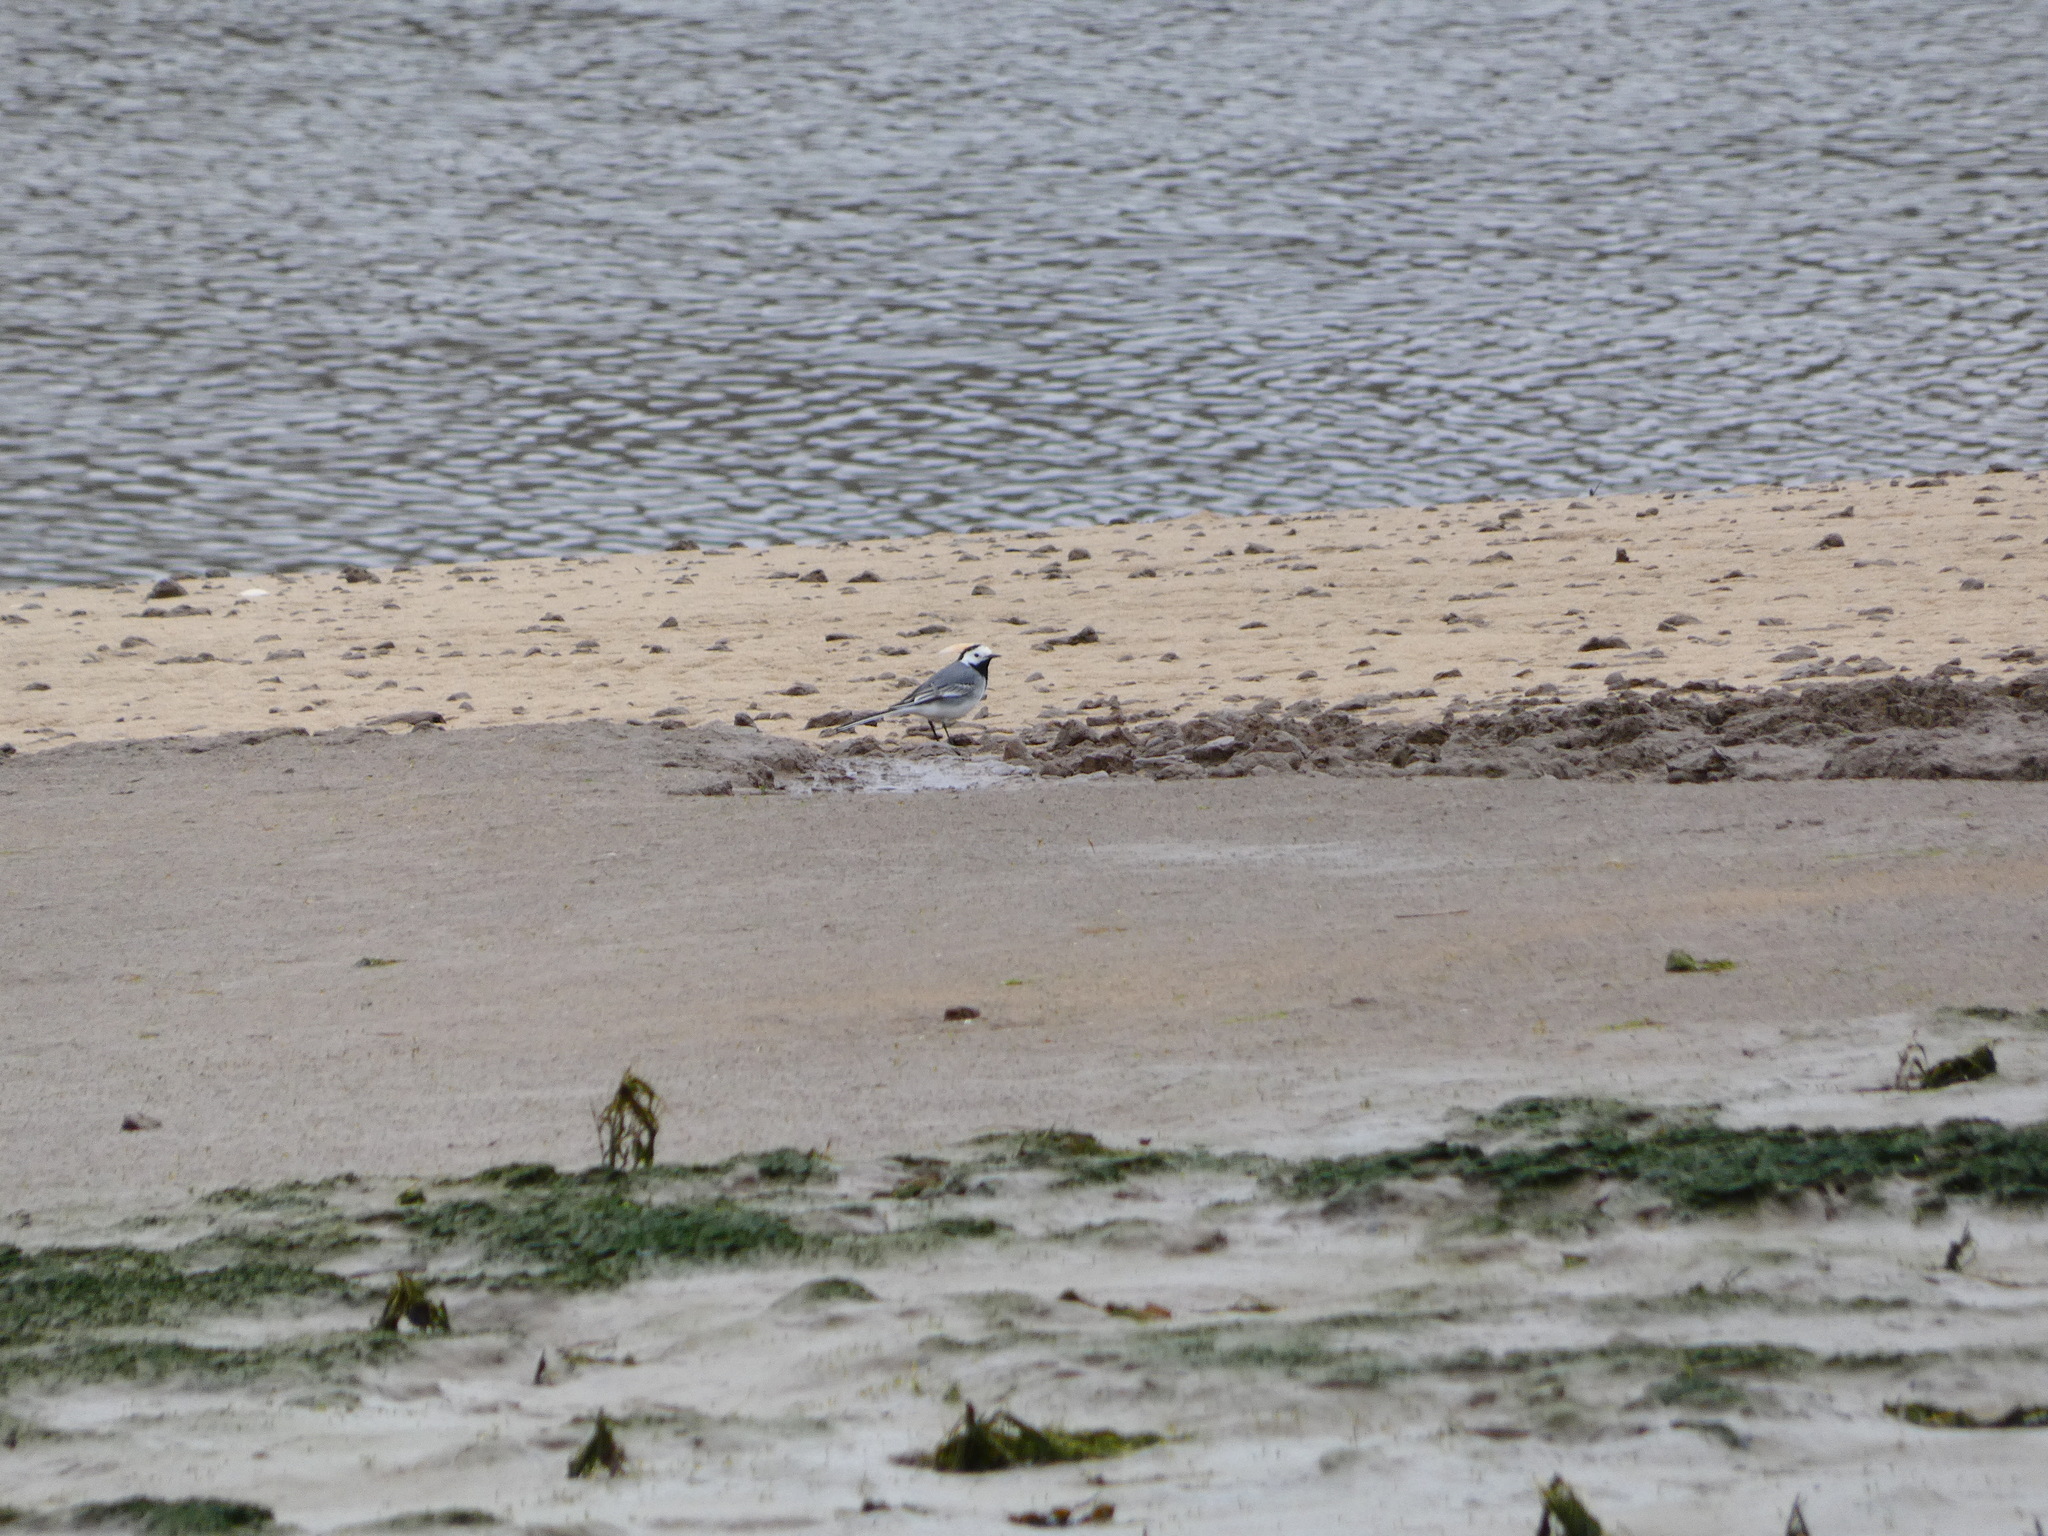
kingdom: Animalia
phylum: Chordata
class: Aves
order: Passeriformes
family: Motacillidae
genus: Motacilla
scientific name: Motacilla alba
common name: White wagtail
